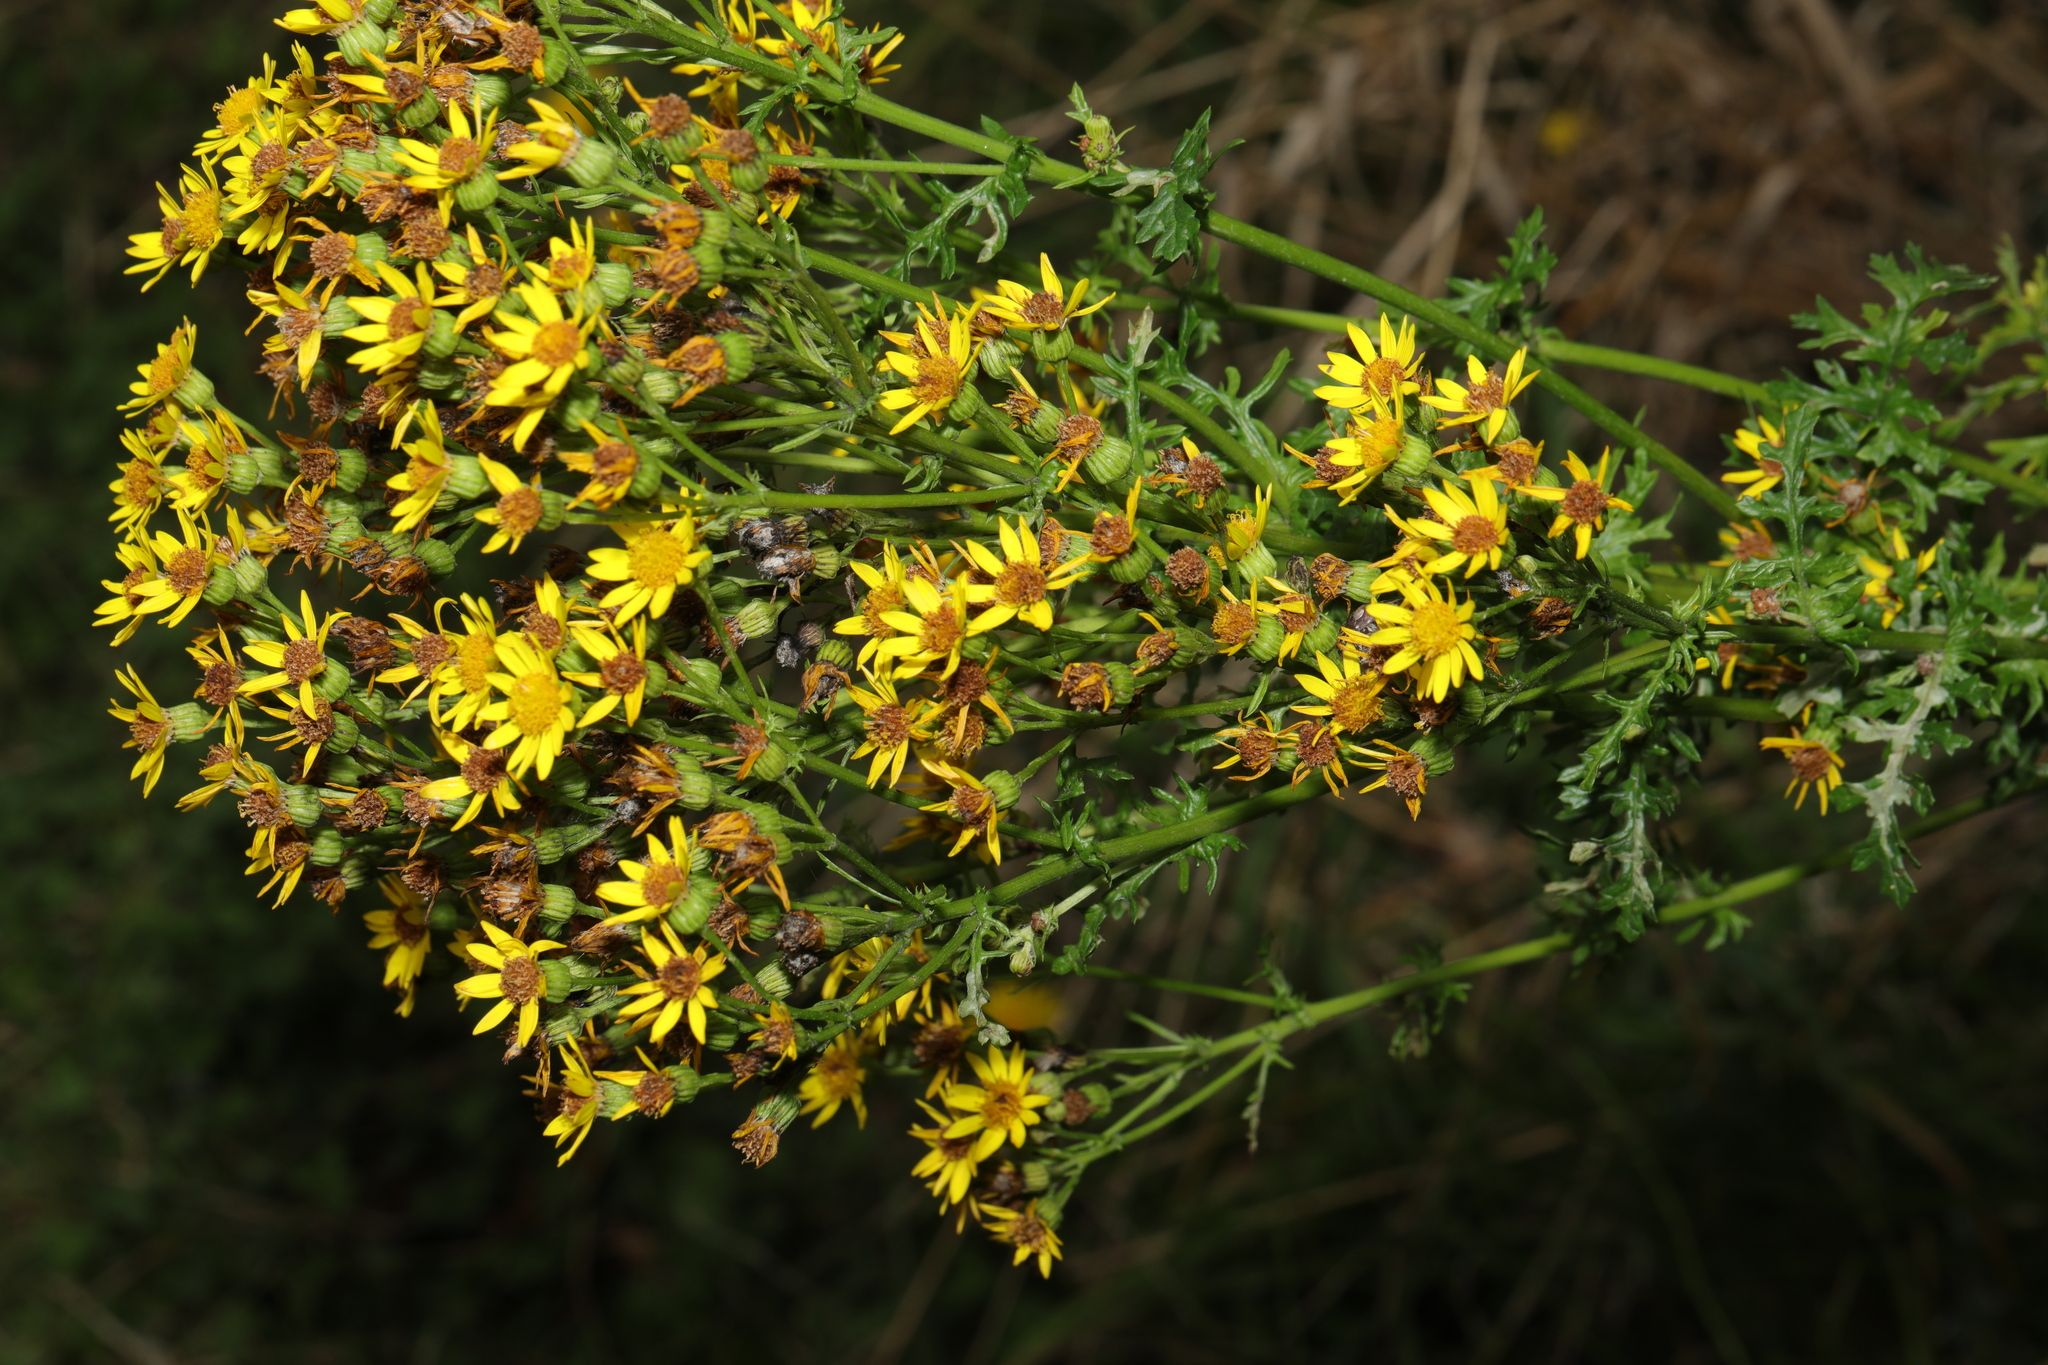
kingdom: Plantae
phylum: Tracheophyta
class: Magnoliopsida
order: Asterales
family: Asteraceae
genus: Jacobaea
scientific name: Jacobaea vulgaris
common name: Stinking willie
